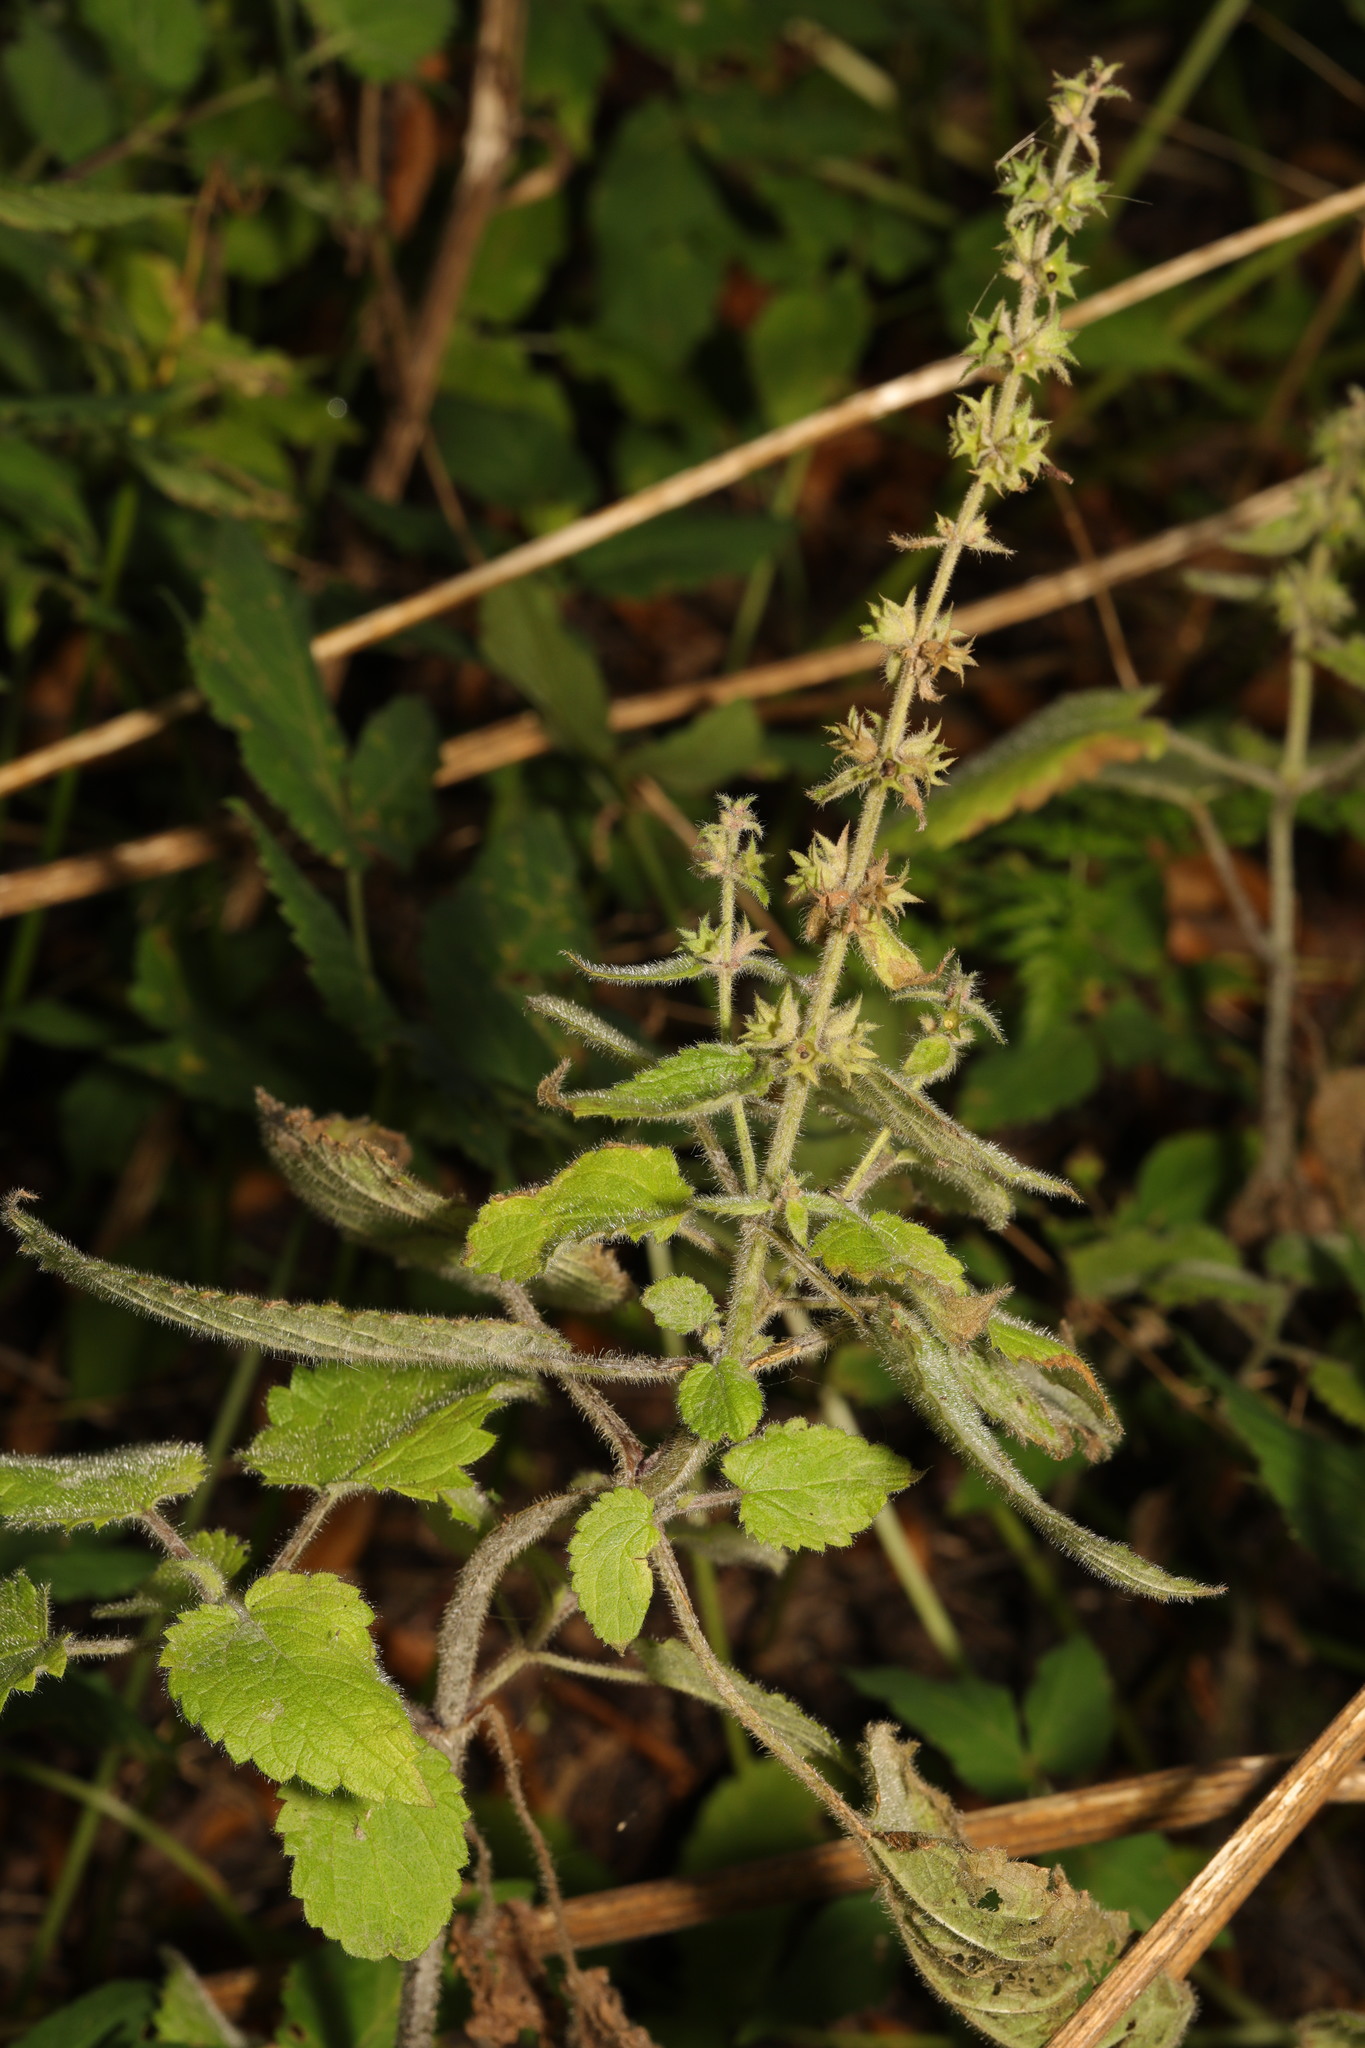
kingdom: Plantae
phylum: Tracheophyta
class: Magnoliopsida
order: Lamiales
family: Lamiaceae
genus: Stachys
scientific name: Stachys sylvatica
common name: Hedge woundwort
